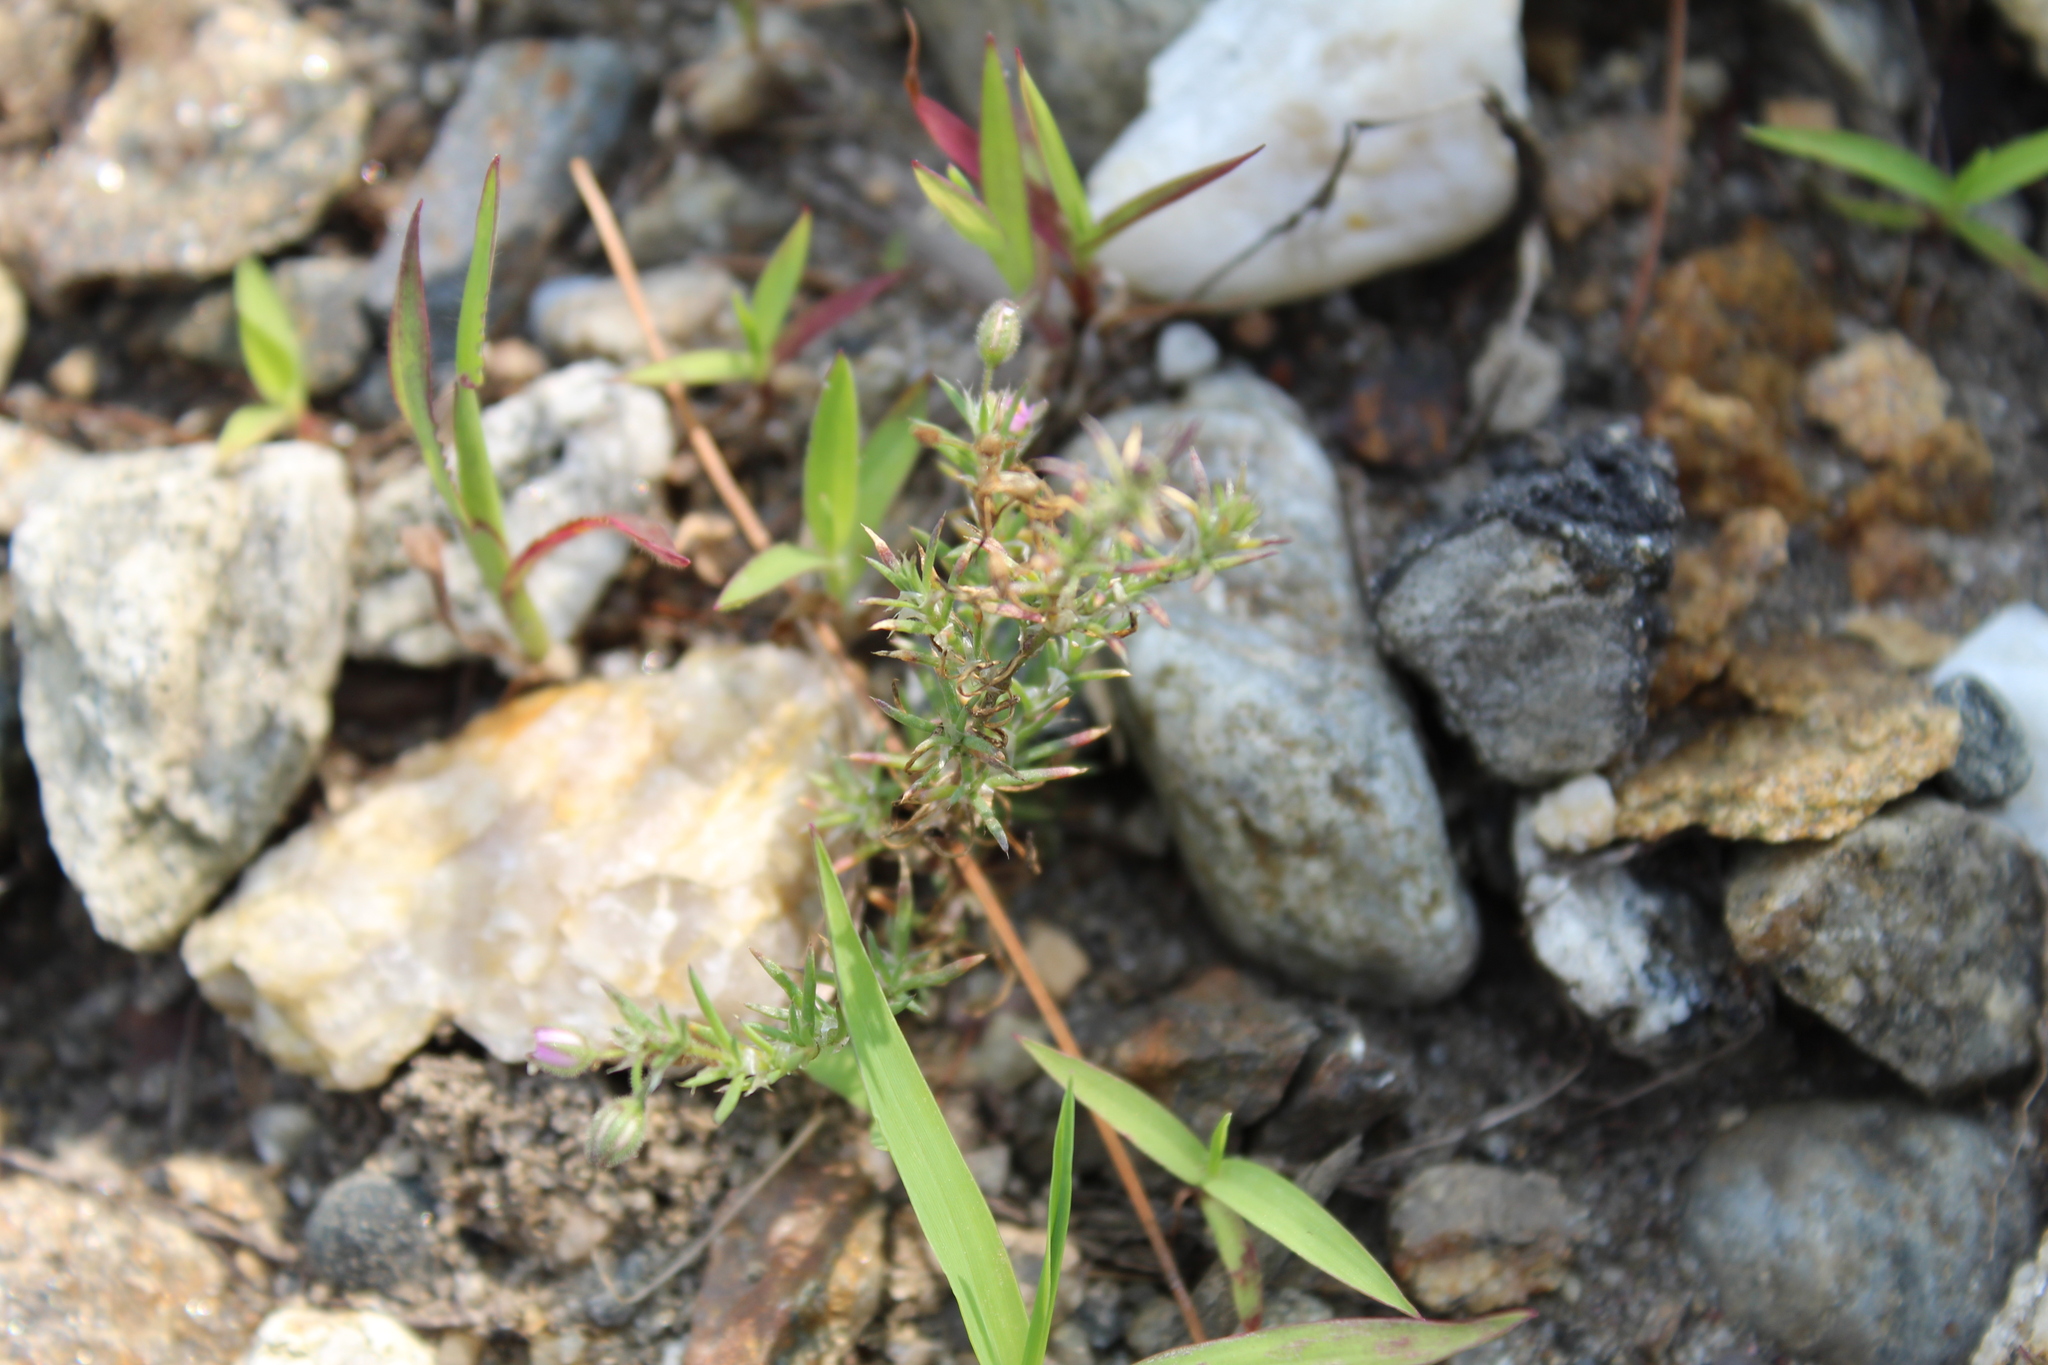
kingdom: Plantae
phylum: Tracheophyta
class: Magnoliopsida
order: Caryophyllales
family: Caryophyllaceae
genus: Spergularia
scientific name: Spergularia rubra
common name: Red sand-spurrey
